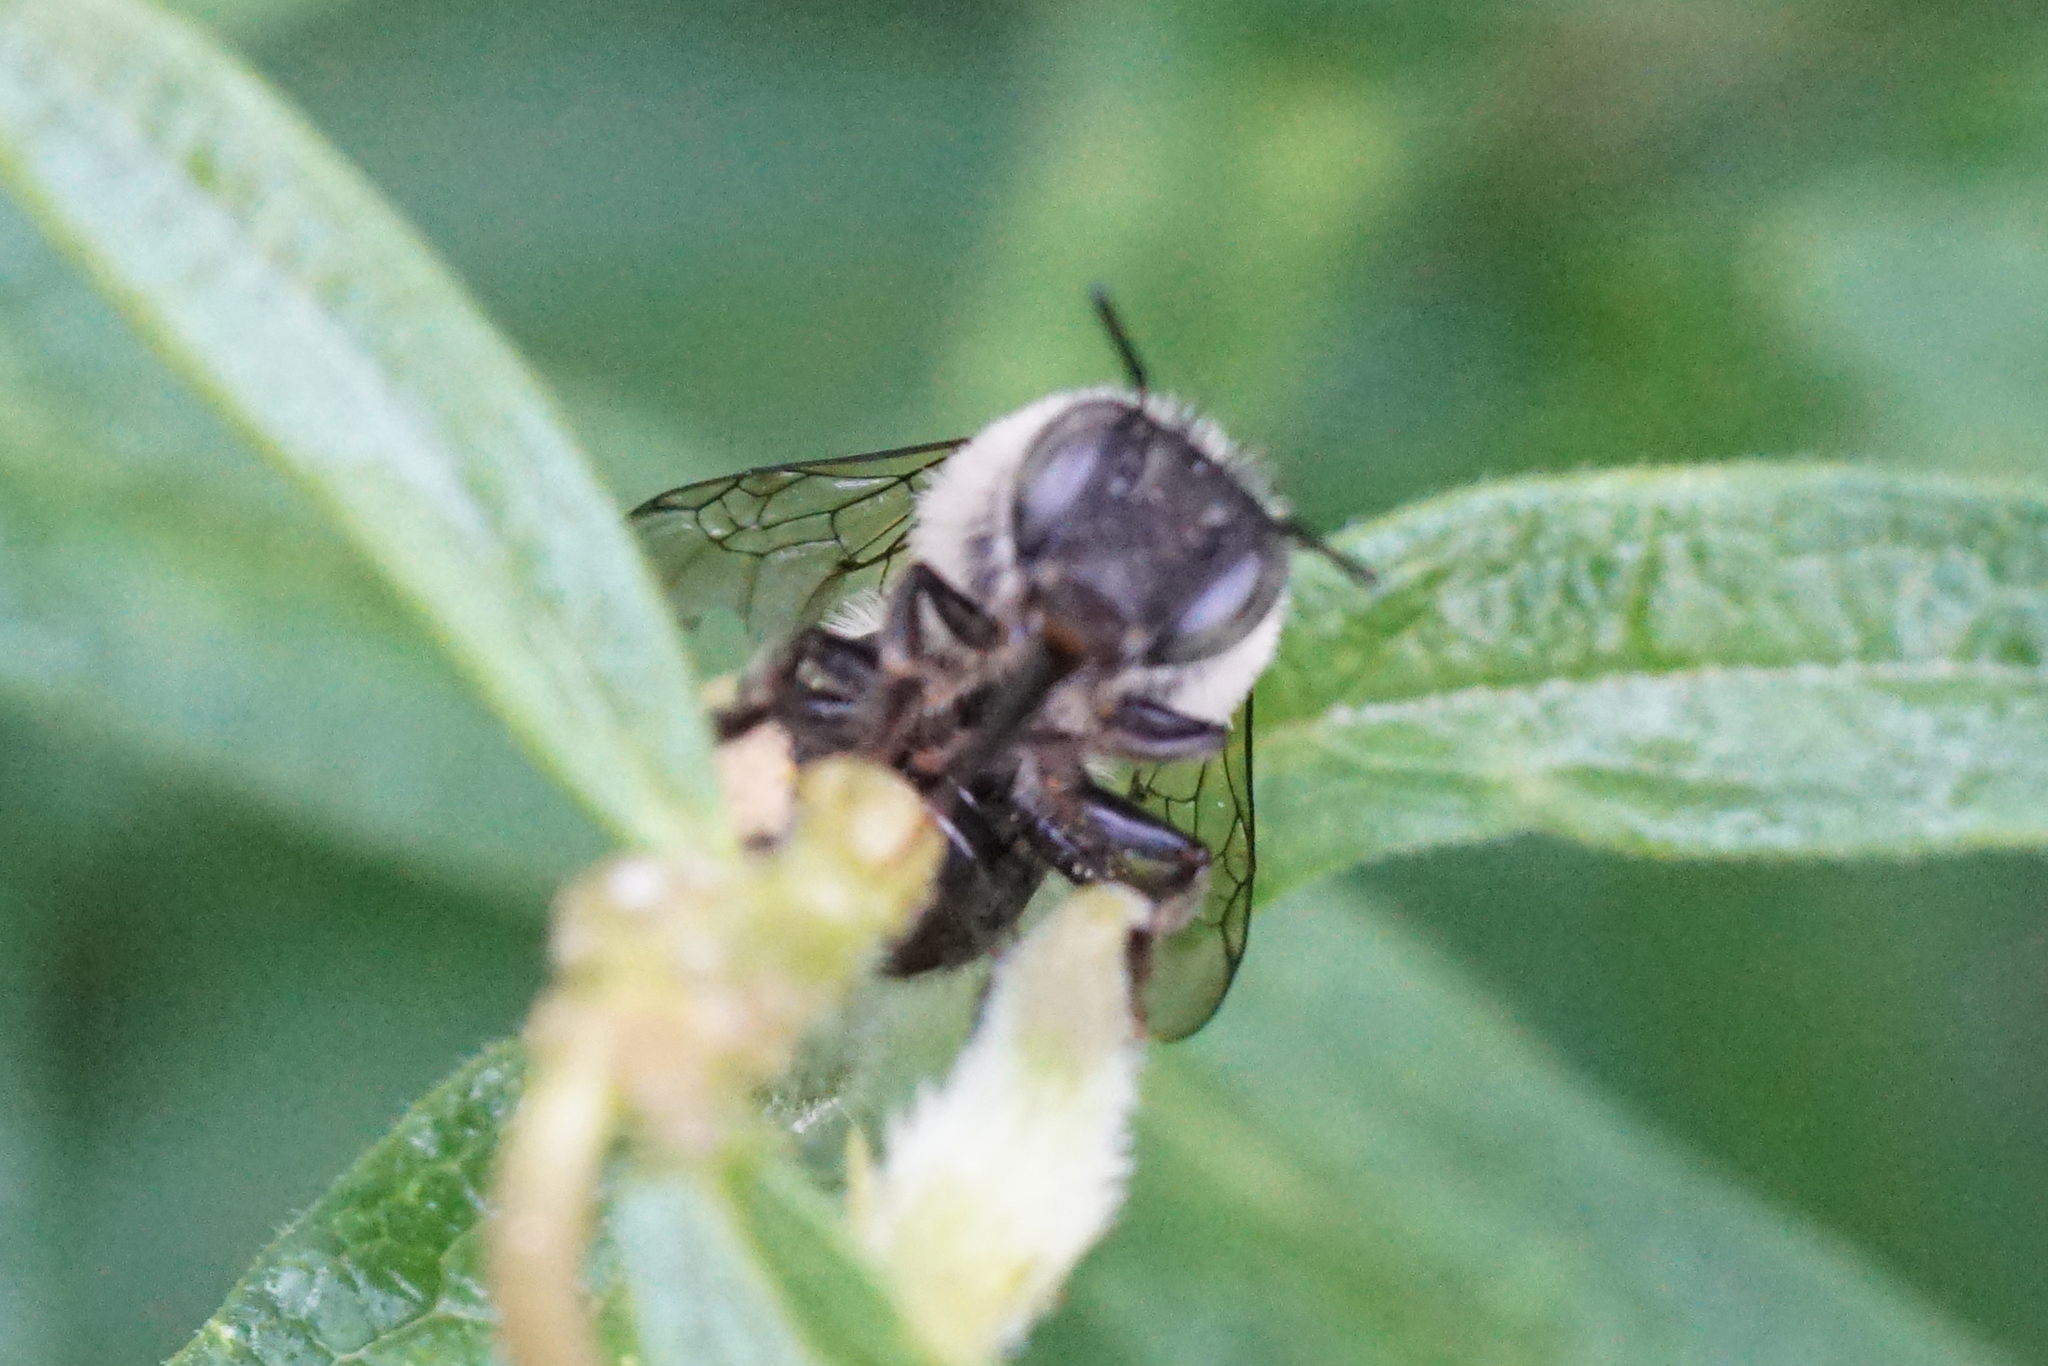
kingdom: Animalia
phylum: Arthropoda
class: Insecta
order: Hymenoptera
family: Apidae
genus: Anthophora
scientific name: Anthophora
